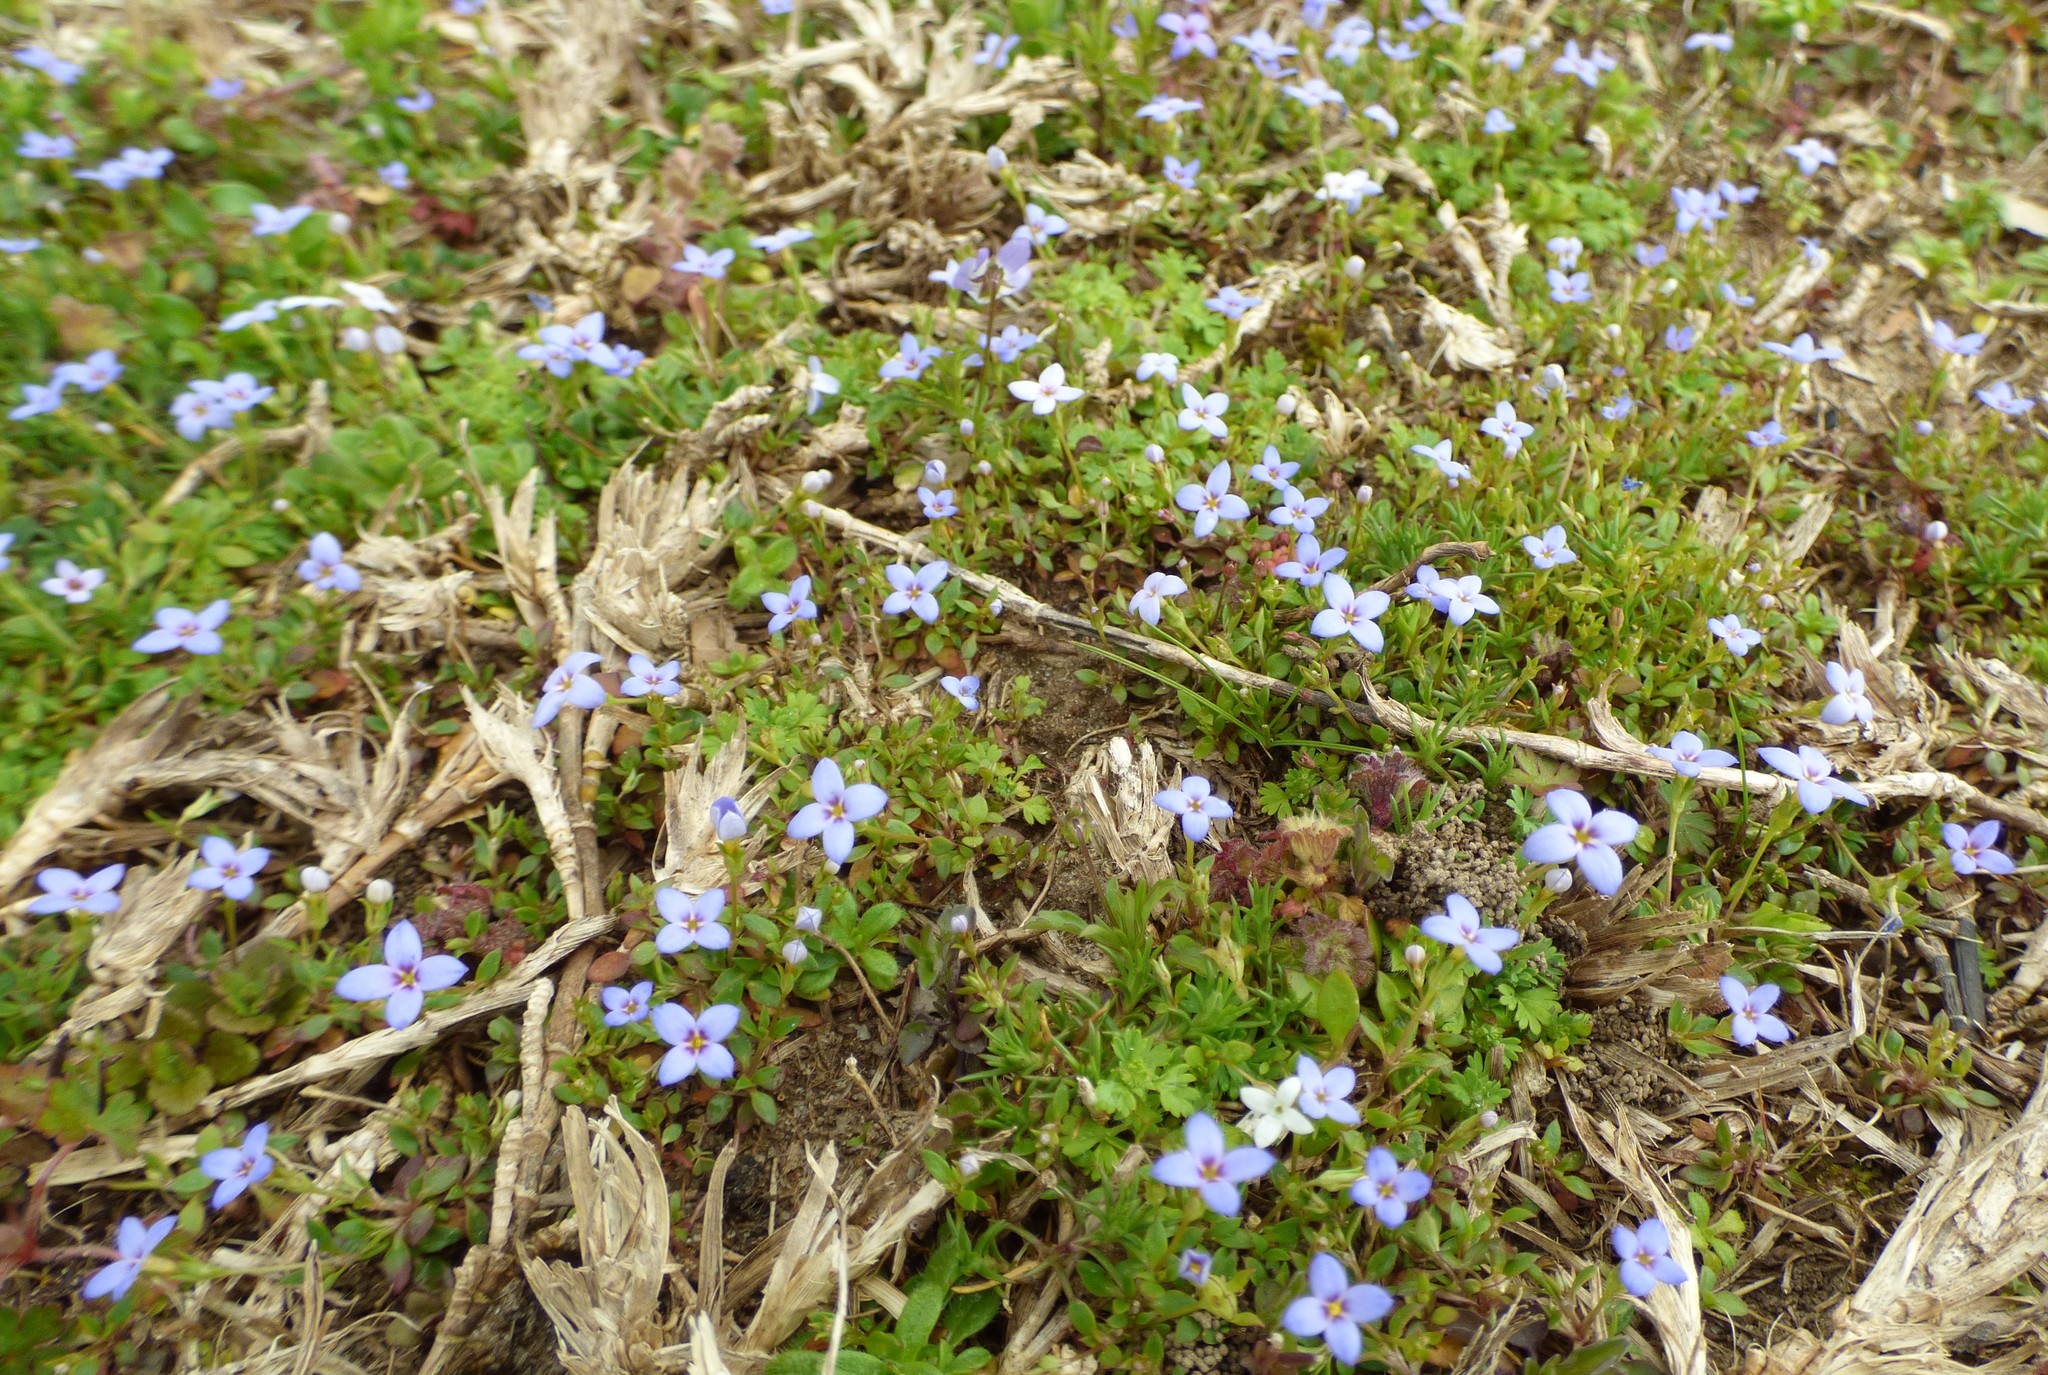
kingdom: Plantae
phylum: Tracheophyta
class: Magnoliopsida
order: Gentianales
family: Rubiaceae
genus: Houstonia
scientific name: Houstonia pusilla
